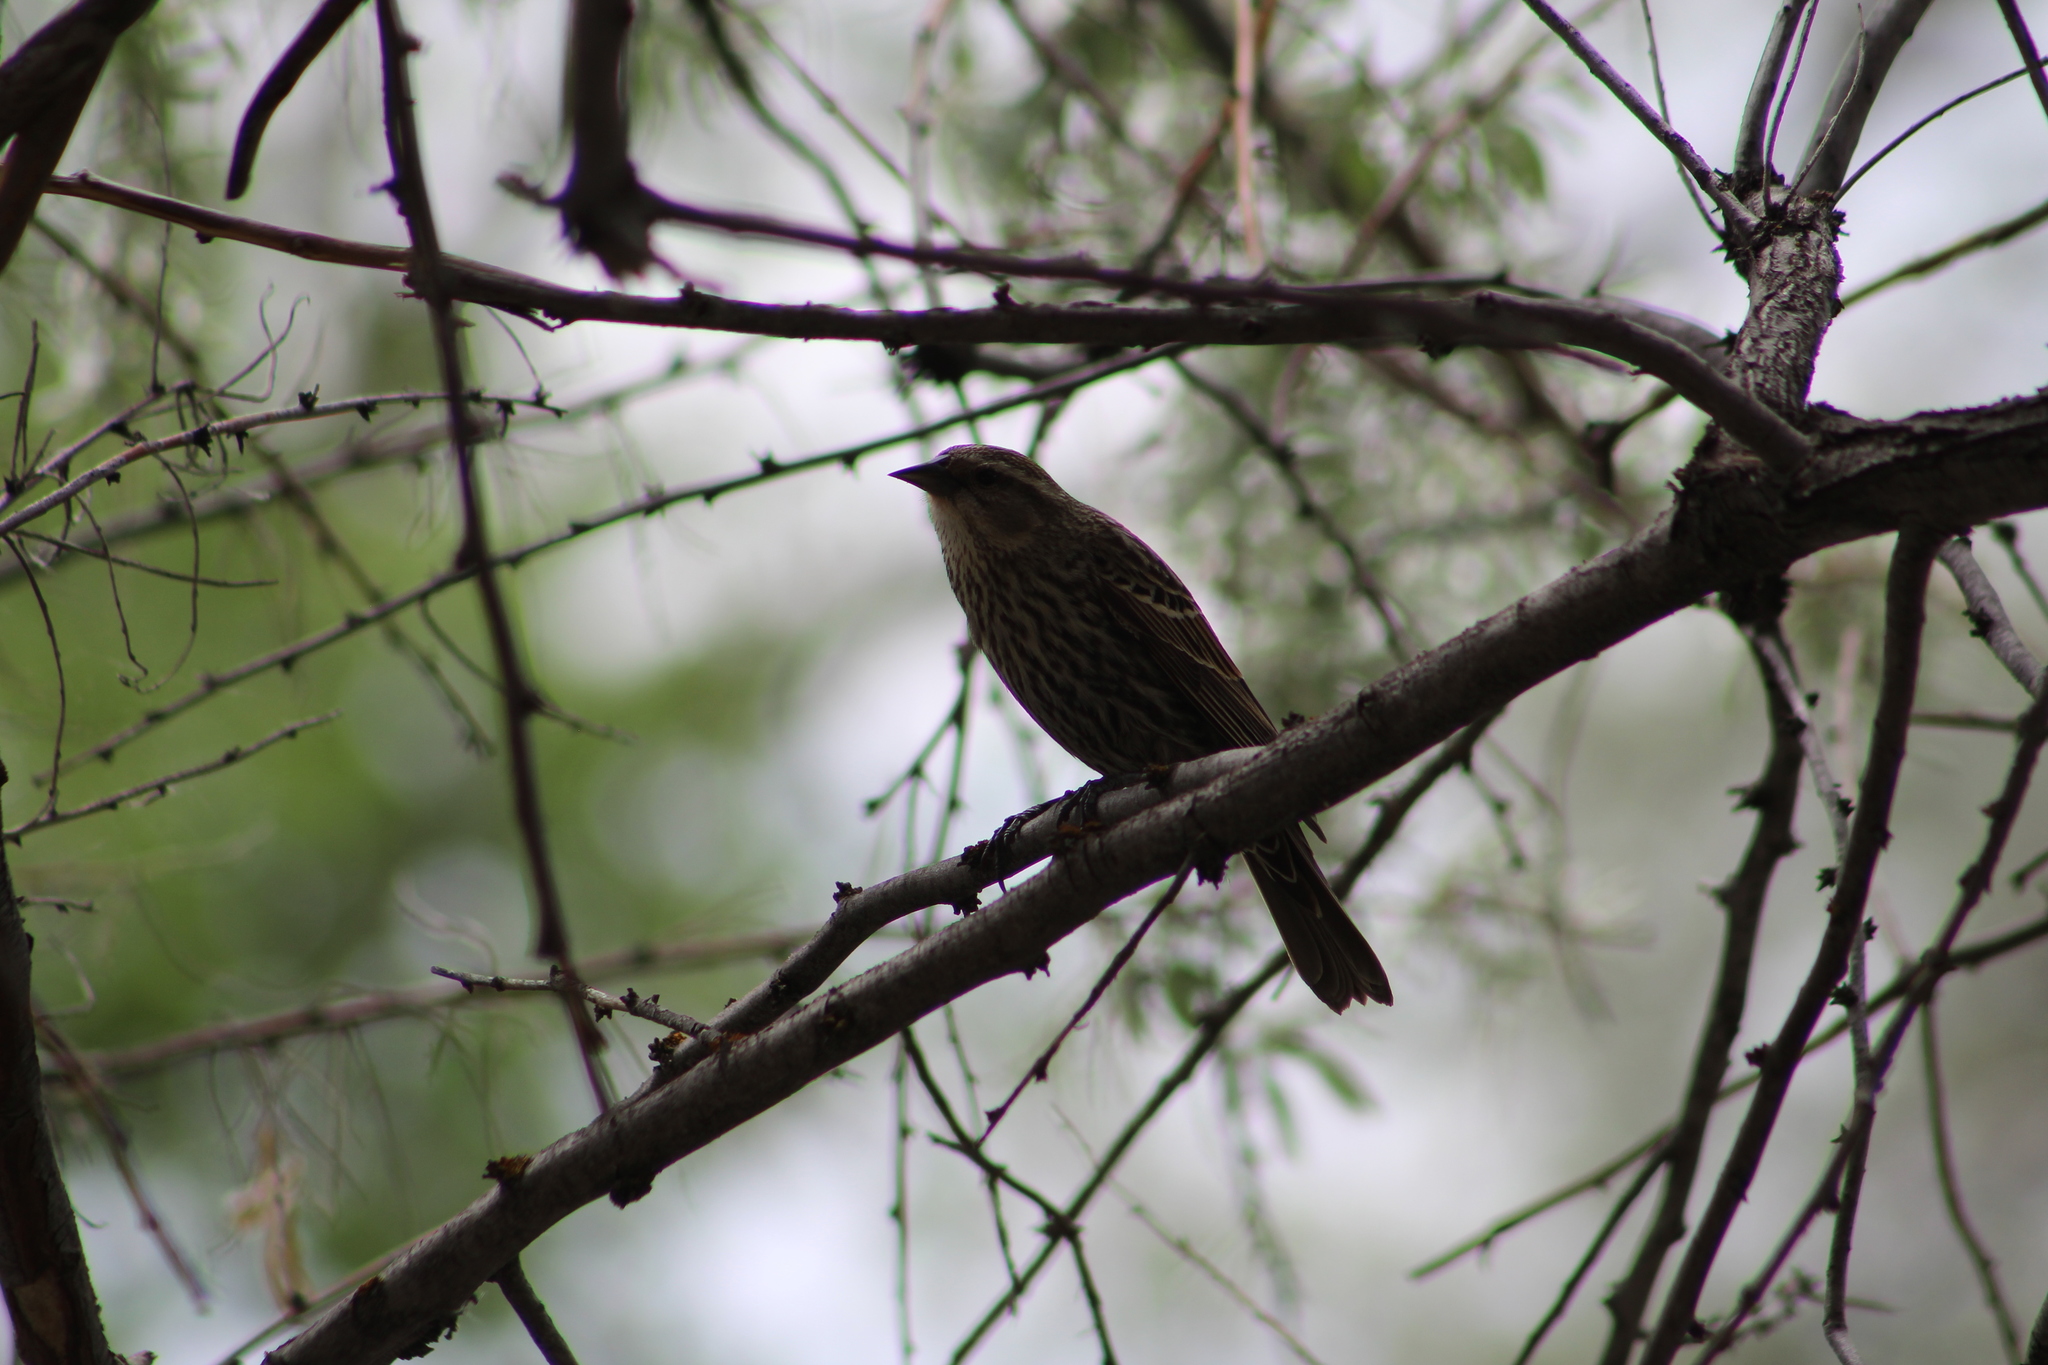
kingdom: Animalia
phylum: Chordata
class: Aves
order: Passeriformes
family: Icteridae
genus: Agelaius
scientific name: Agelaius phoeniceus
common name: Red-winged blackbird
